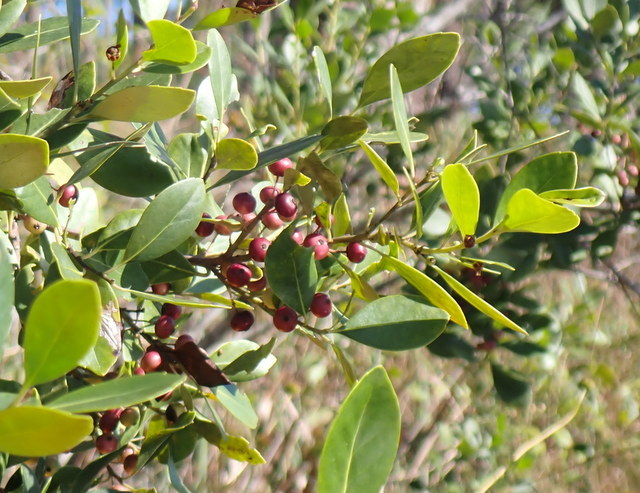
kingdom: Plantae
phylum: Tracheophyta
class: Magnoliopsida
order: Aquifoliales
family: Aquifoliaceae
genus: Ilex
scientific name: Ilex glabra
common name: Bitter gallberry
